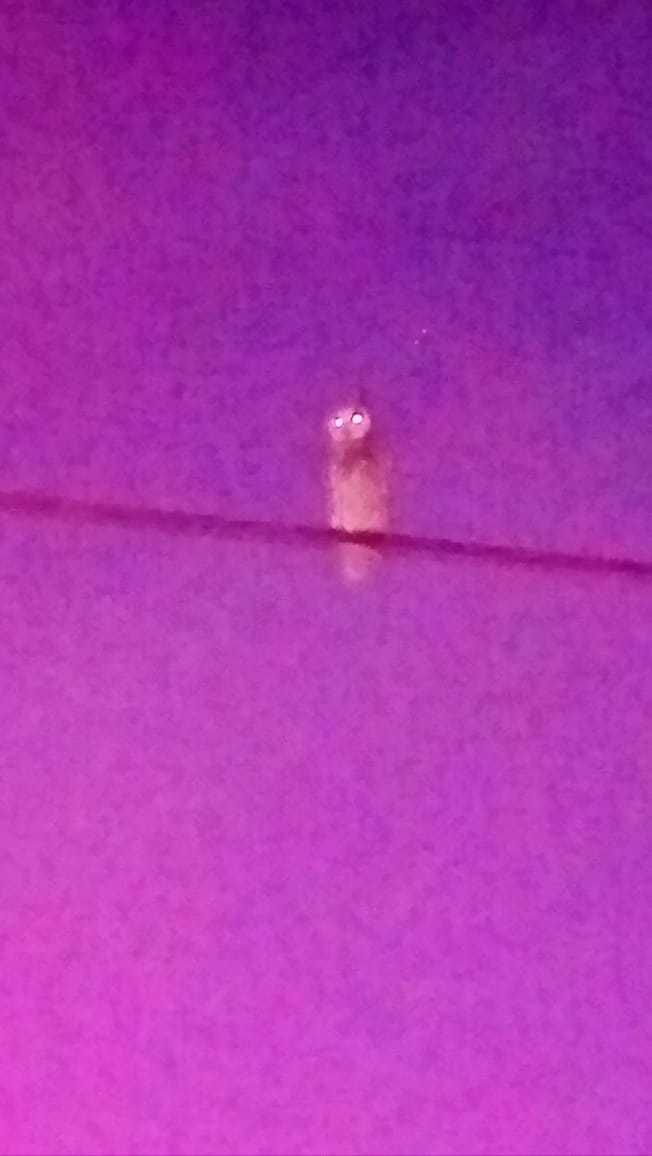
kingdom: Animalia
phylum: Chordata
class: Aves
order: Strigiformes
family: Strigidae
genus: Pseudoscops
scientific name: Pseudoscops clamator
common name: Striped owl
